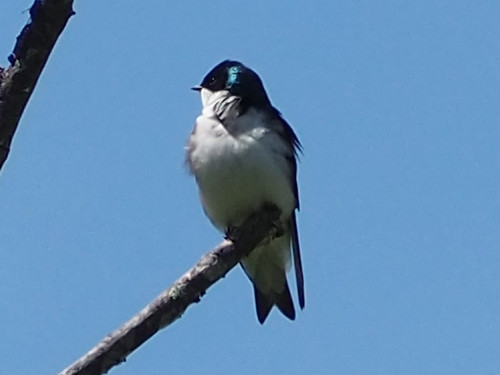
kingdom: Animalia
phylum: Chordata
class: Aves
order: Passeriformes
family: Hirundinidae
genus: Tachycineta
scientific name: Tachycineta bicolor
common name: Tree swallow
